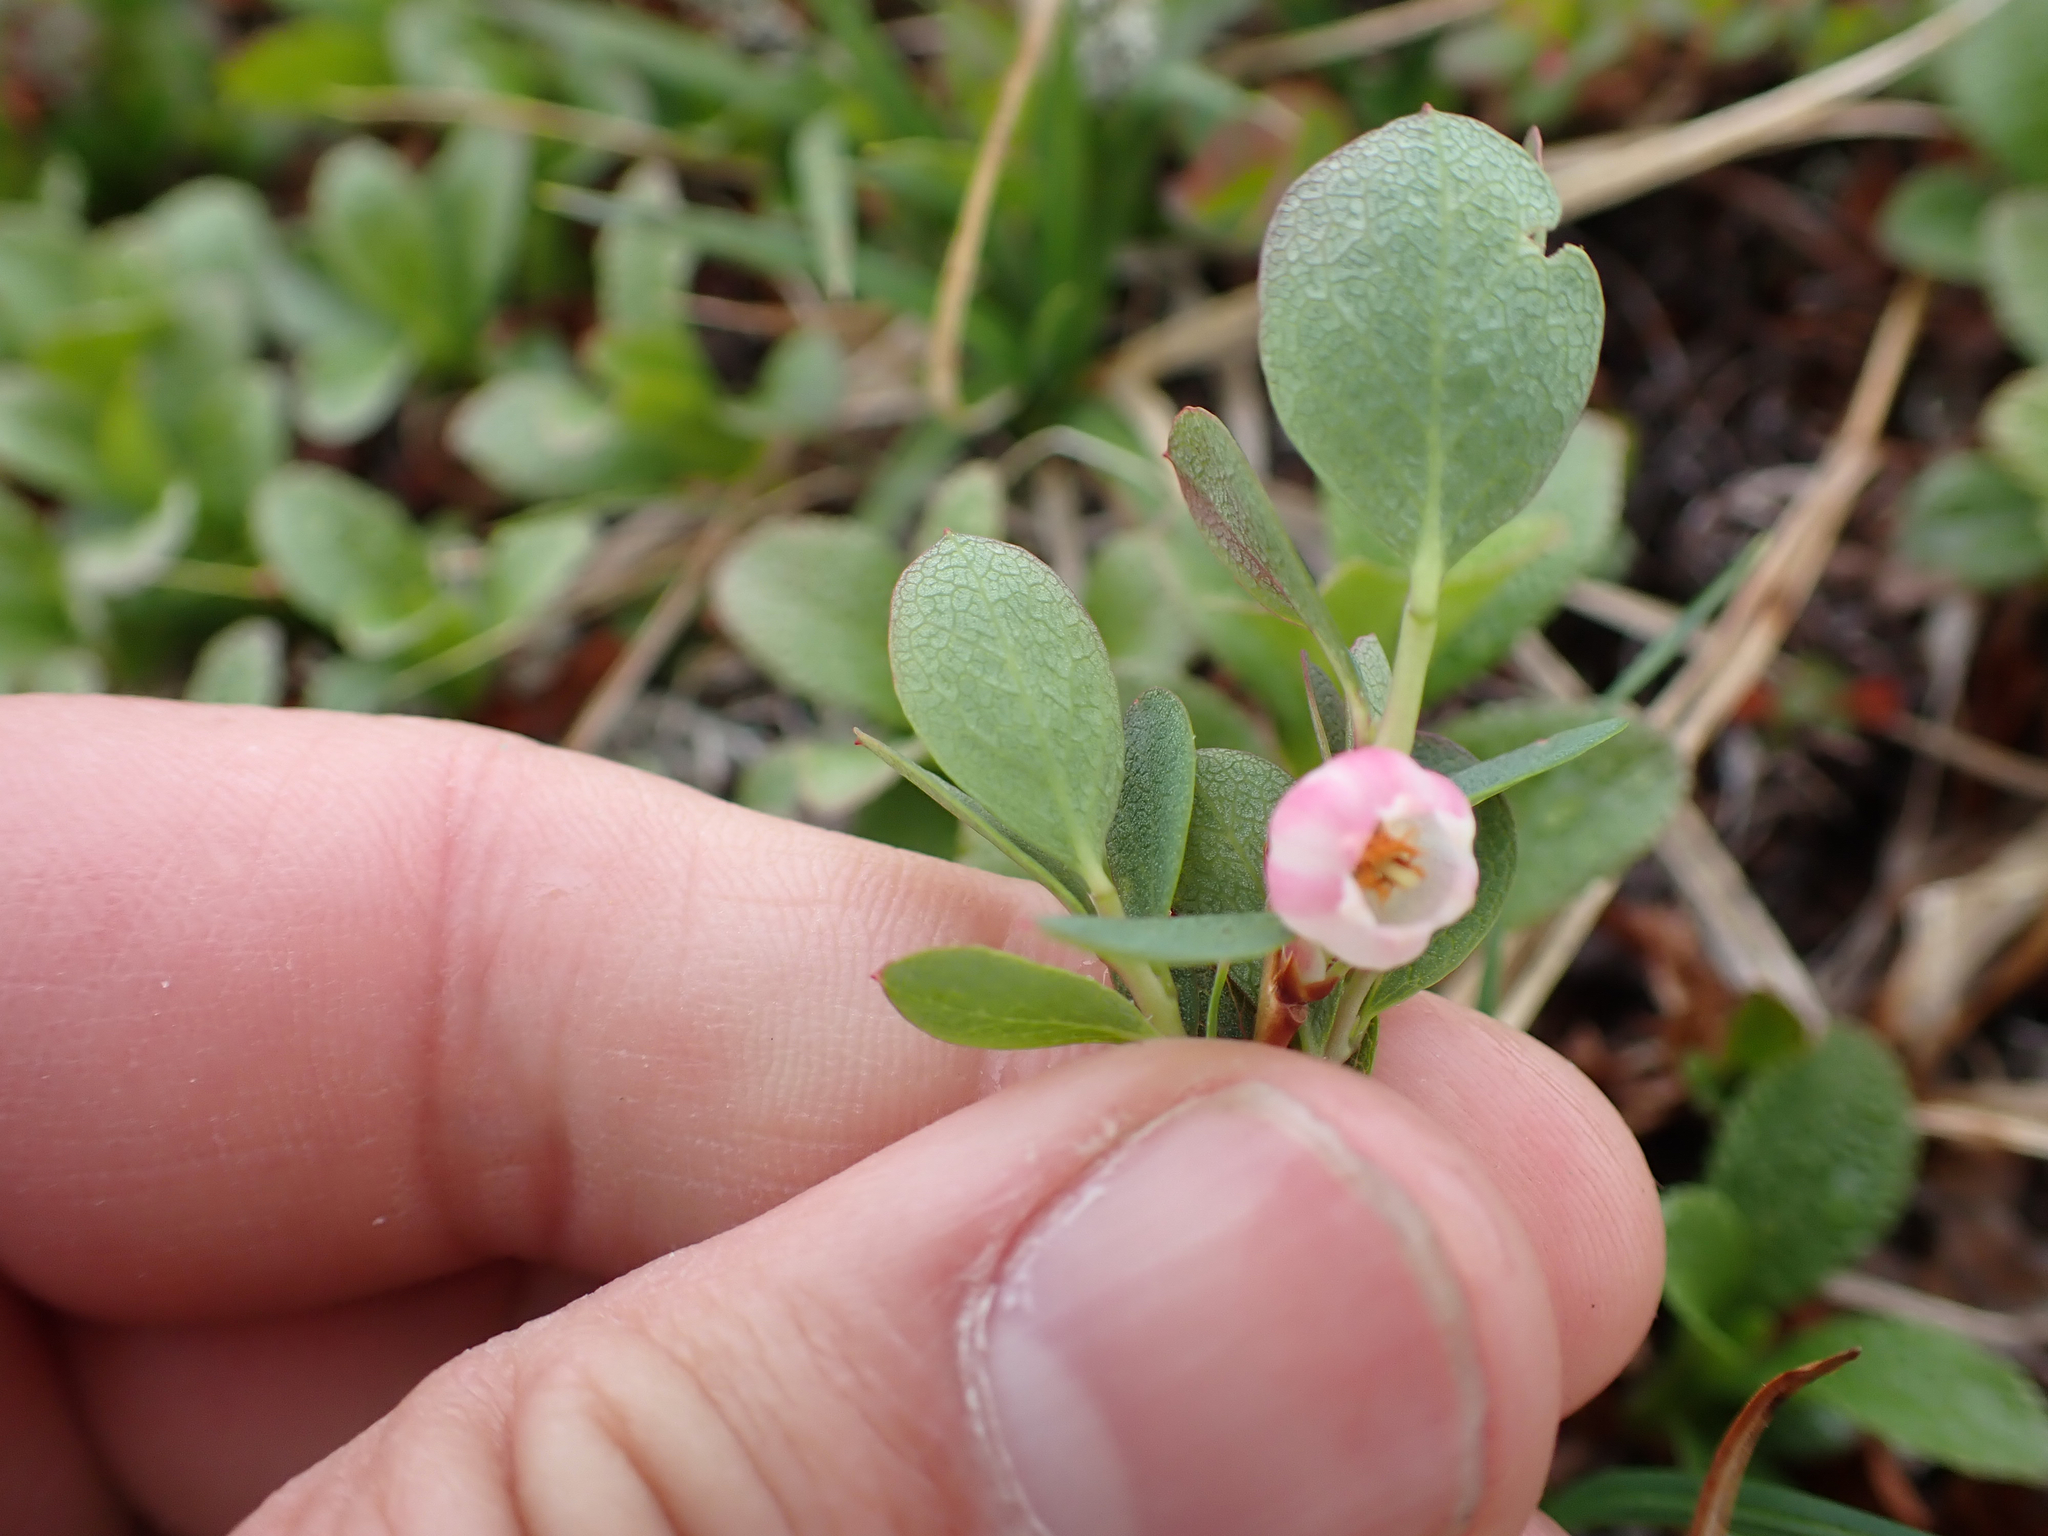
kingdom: Plantae
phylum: Tracheophyta
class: Magnoliopsida
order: Ericales
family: Ericaceae
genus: Vaccinium
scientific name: Vaccinium uliginosum
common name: Bog bilberry
